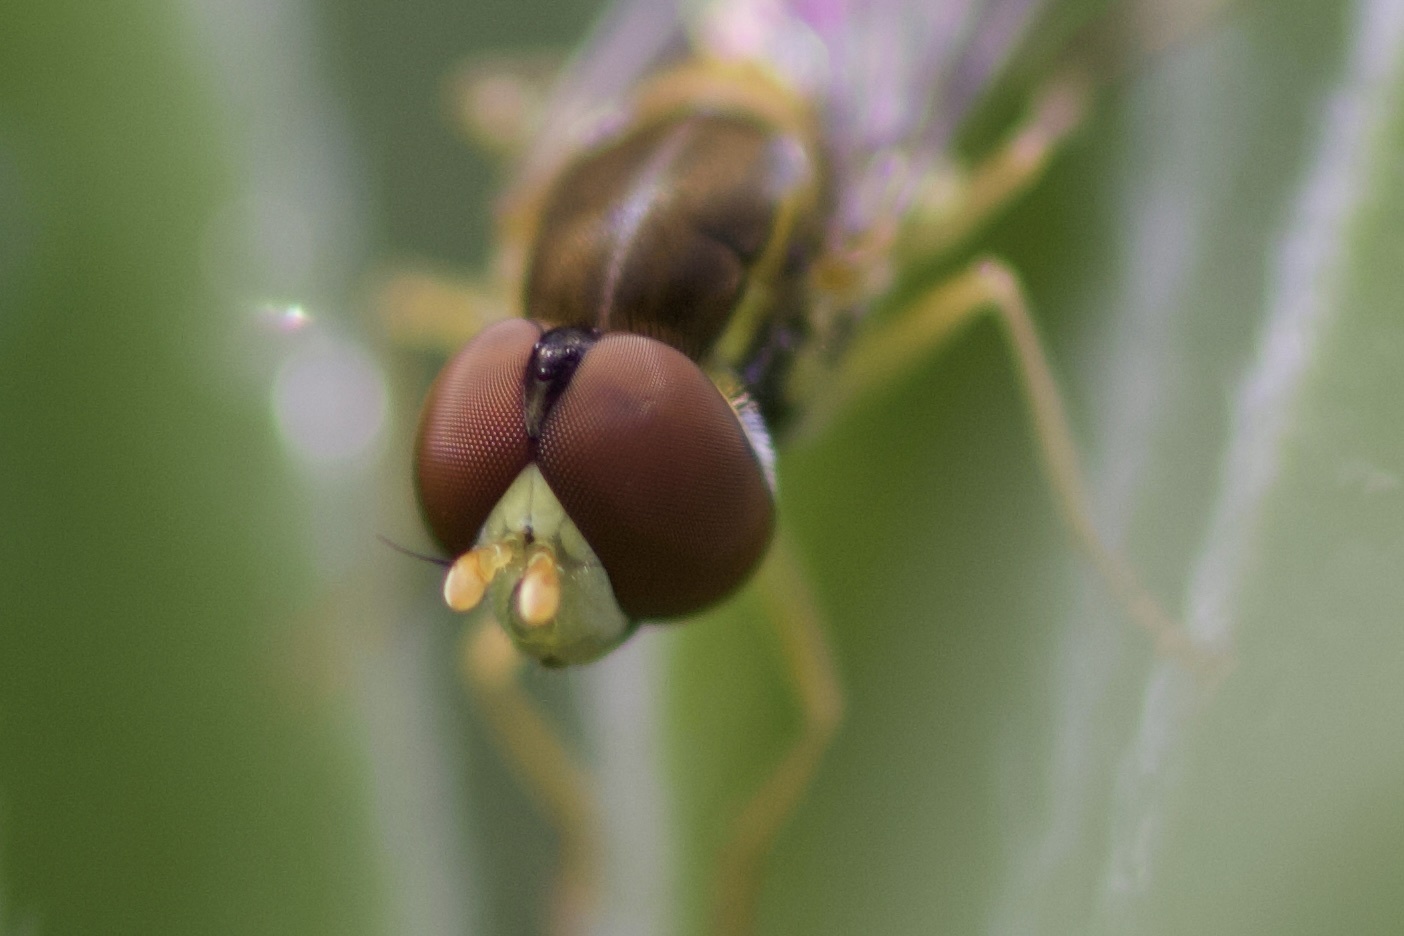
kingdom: Animalia
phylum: Arthropoda
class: Insecta
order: Diptera
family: Syrphidae
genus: Toxomerus
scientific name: Toxomerus marginatus
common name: Syrphid fly
